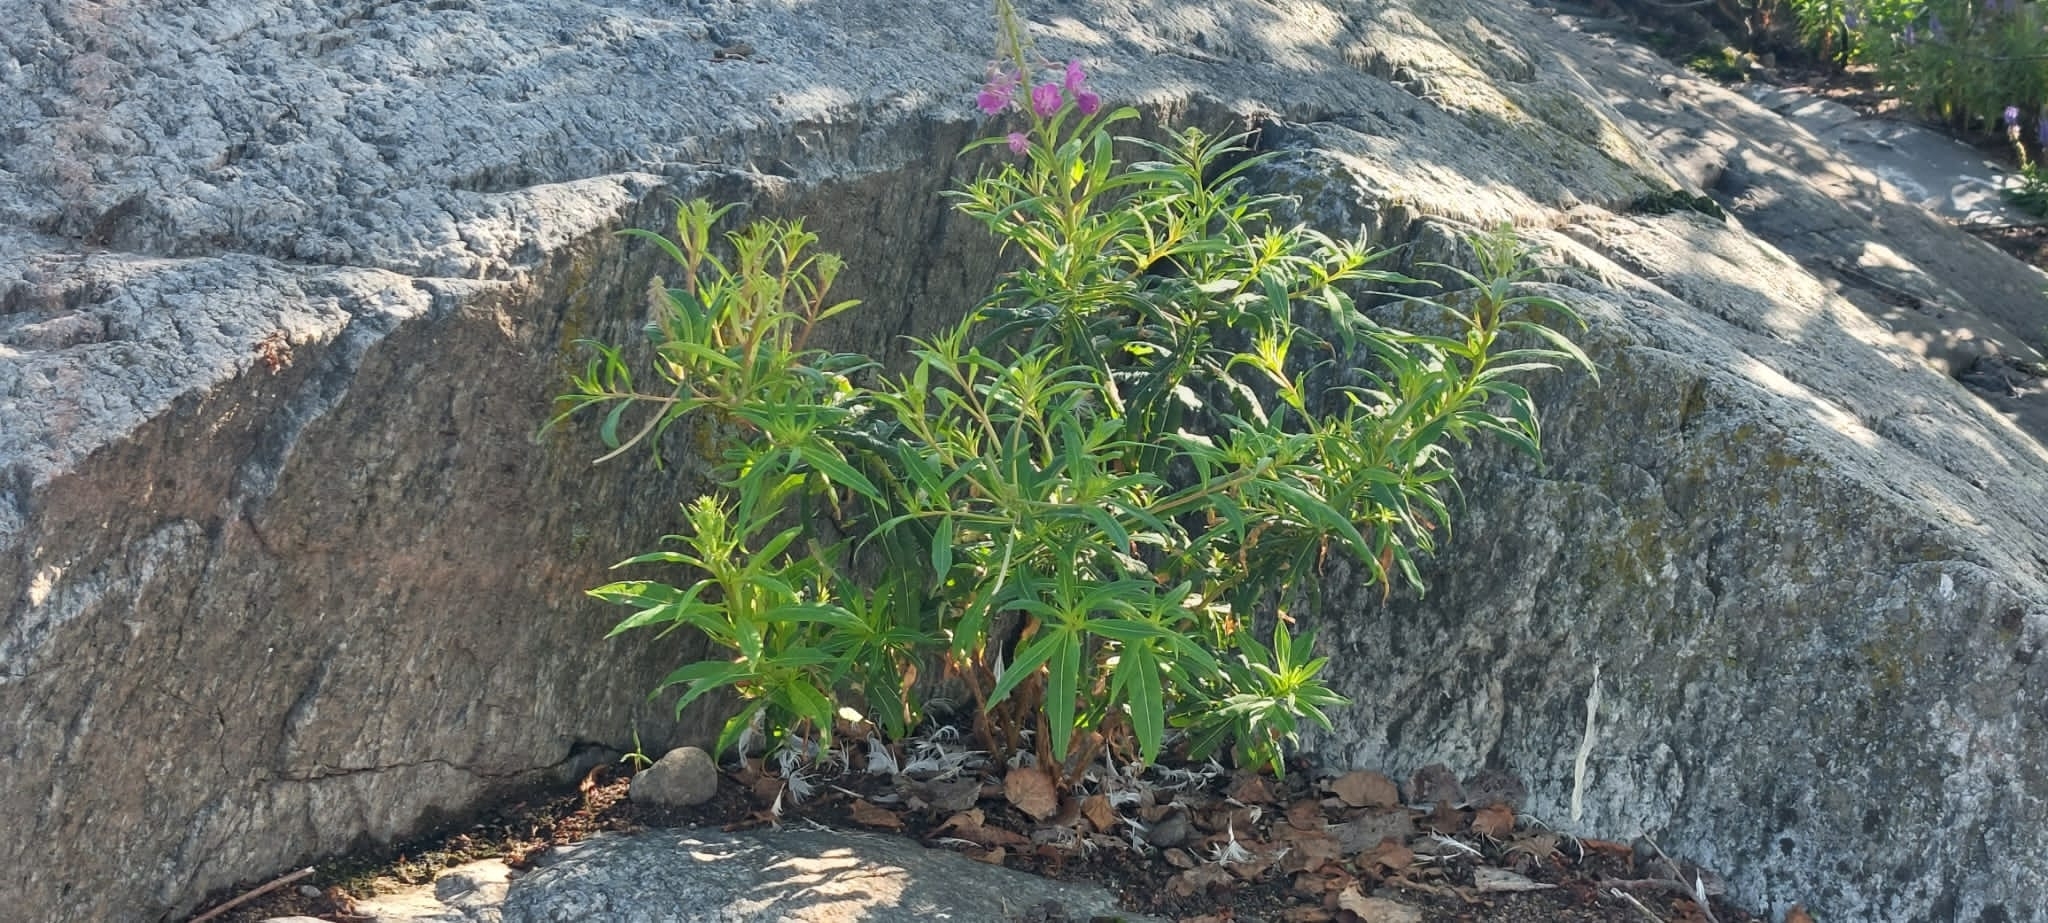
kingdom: Plantae
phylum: Tracheophyta
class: Magnoliopsida
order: Myrtales
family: Onagraceae
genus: Chamaenerion
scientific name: Chamaenerion angustifolium
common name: Fireweed
